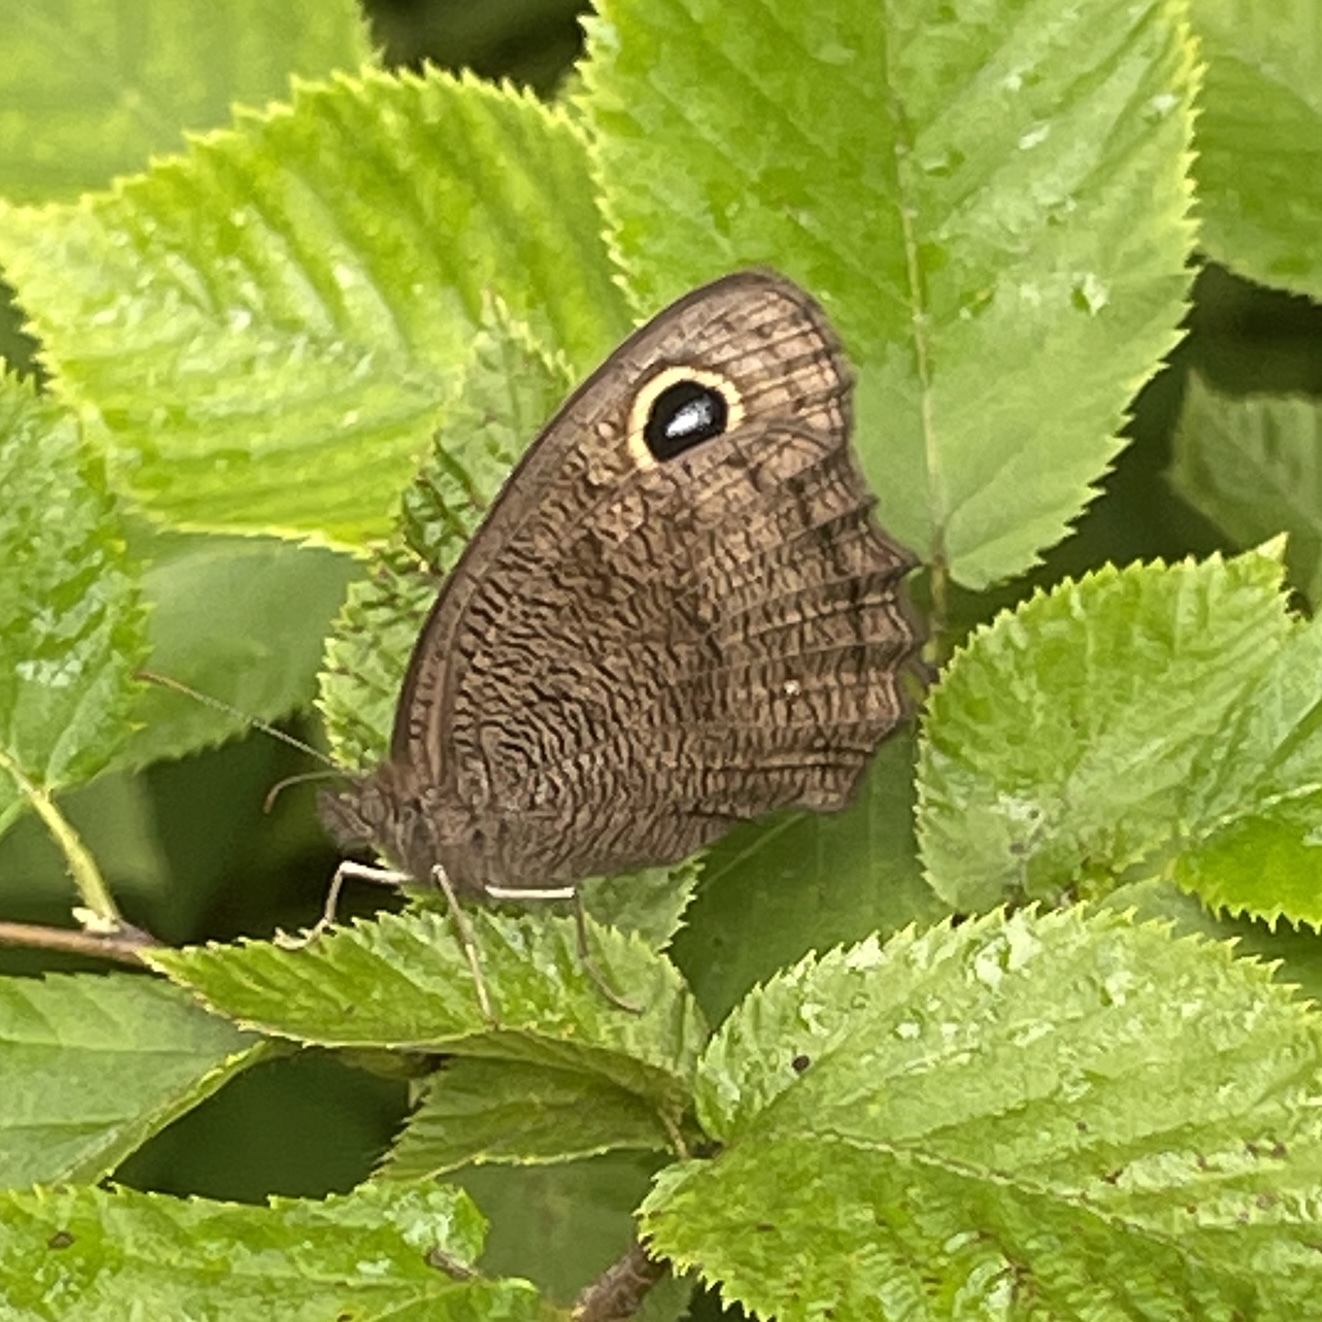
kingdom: Animalia
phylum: Arthropoda
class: Insecta
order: Lepidoptera
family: Nymphalidae
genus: Cercyonis
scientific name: Cercyonis pegala
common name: Common wood-nymph
